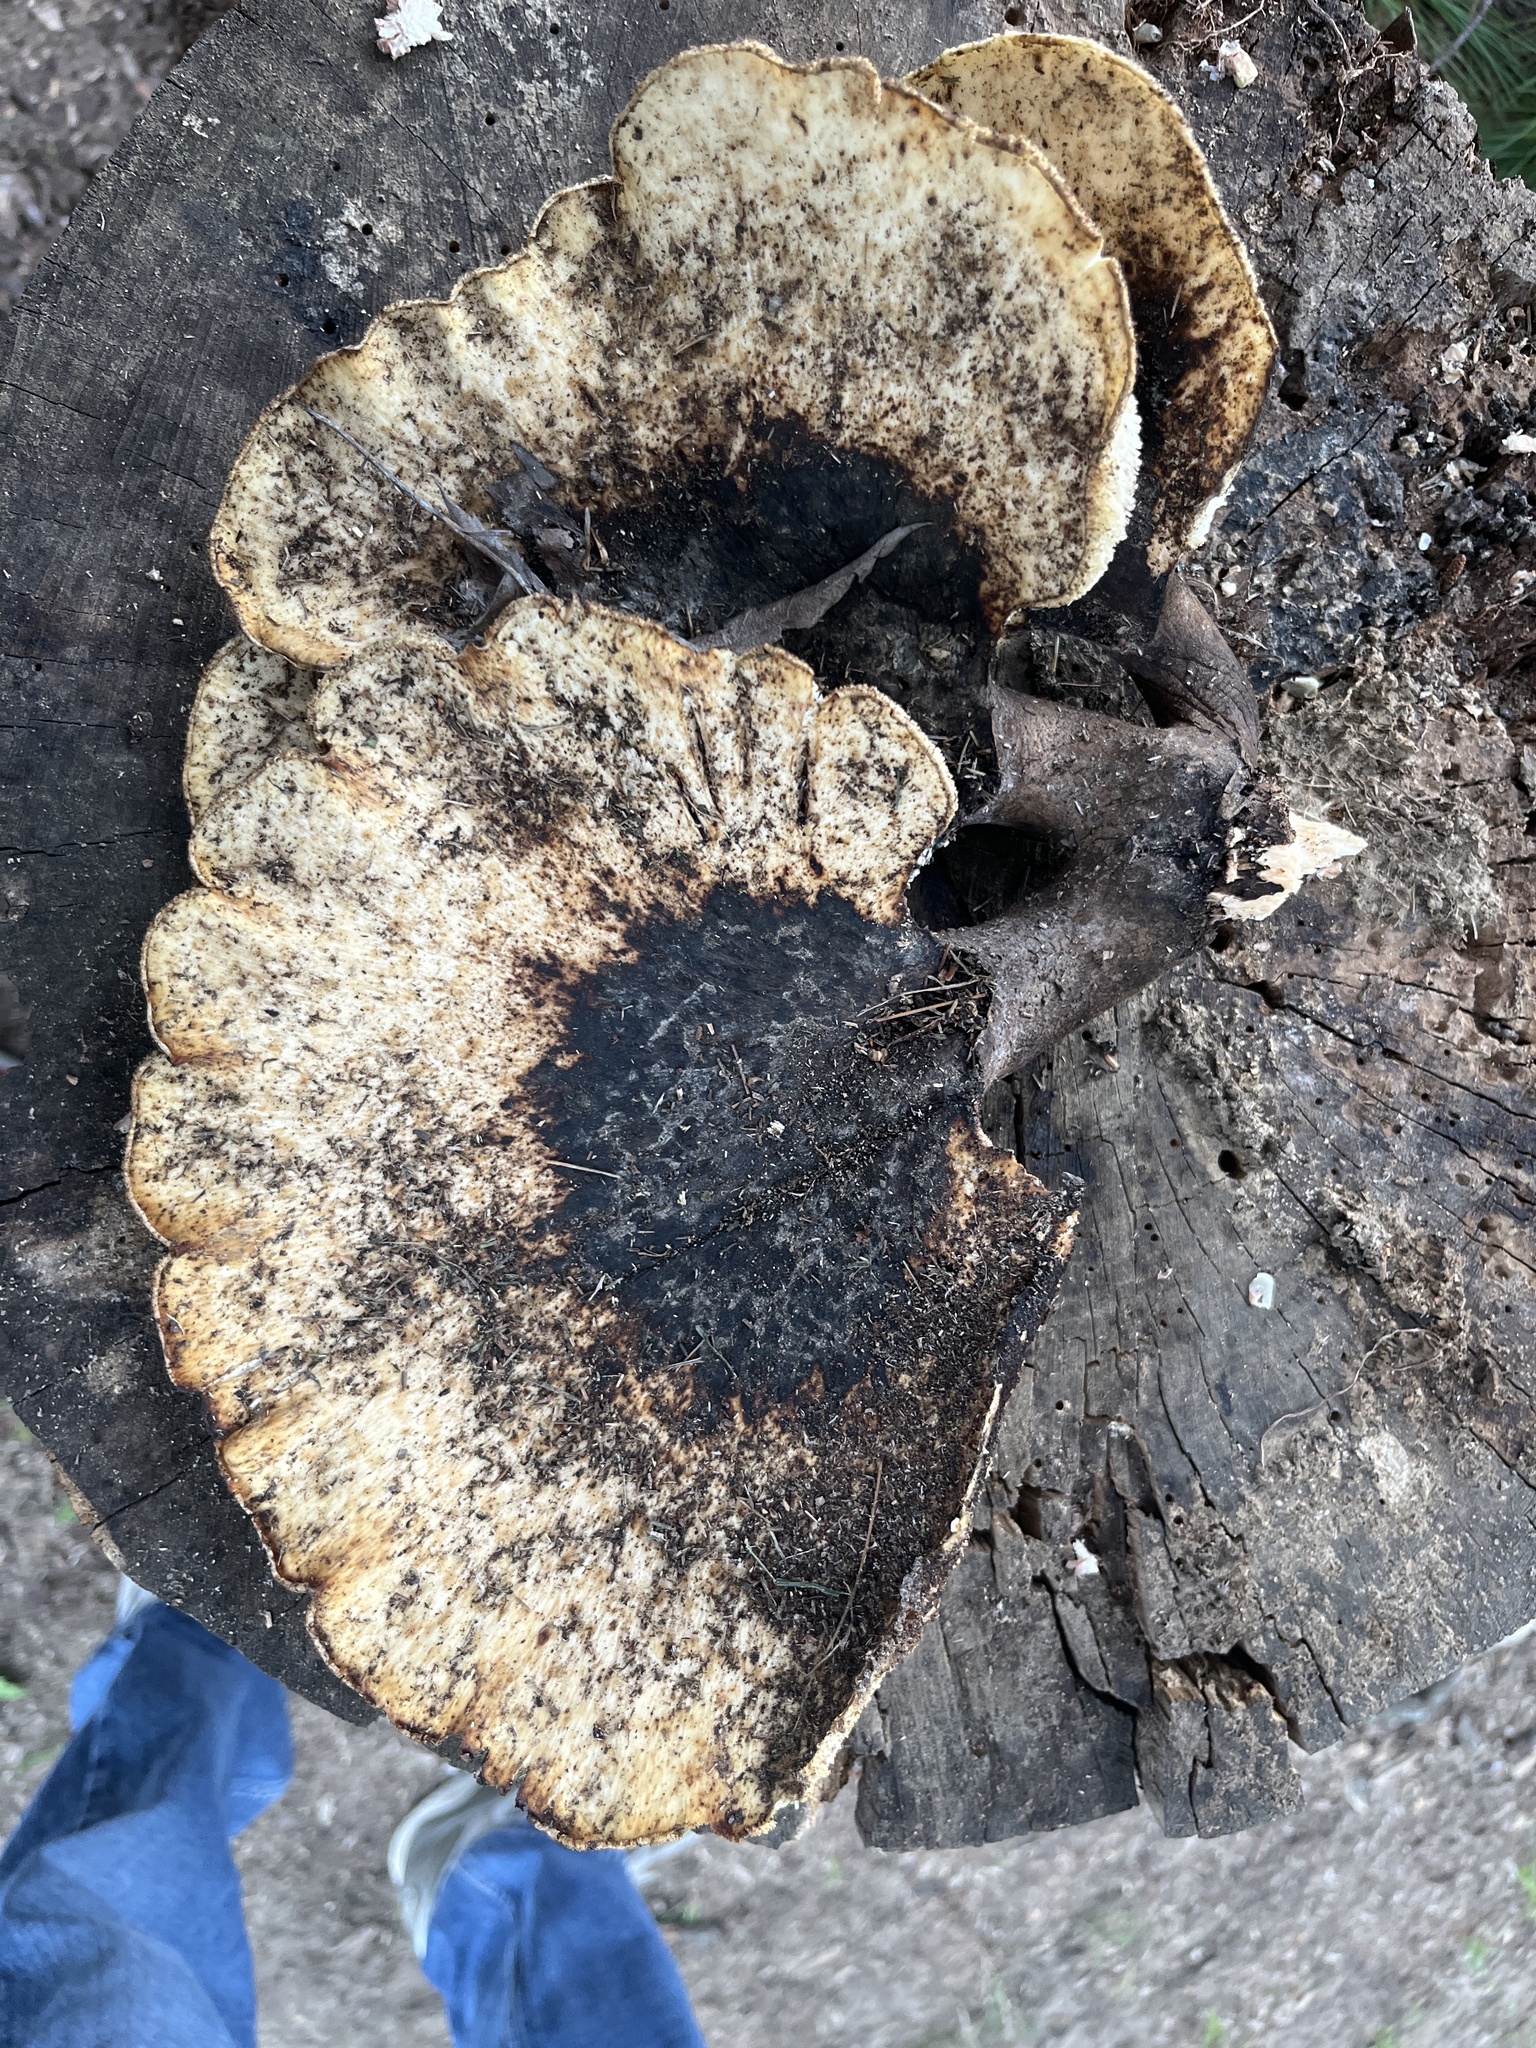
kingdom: Fungi
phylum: Basidiomycota
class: Agaricomycetes
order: Polyporales
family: Polyporaceae
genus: Cerioporus
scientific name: Cerioporus squamosus
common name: Dryad's saddle
